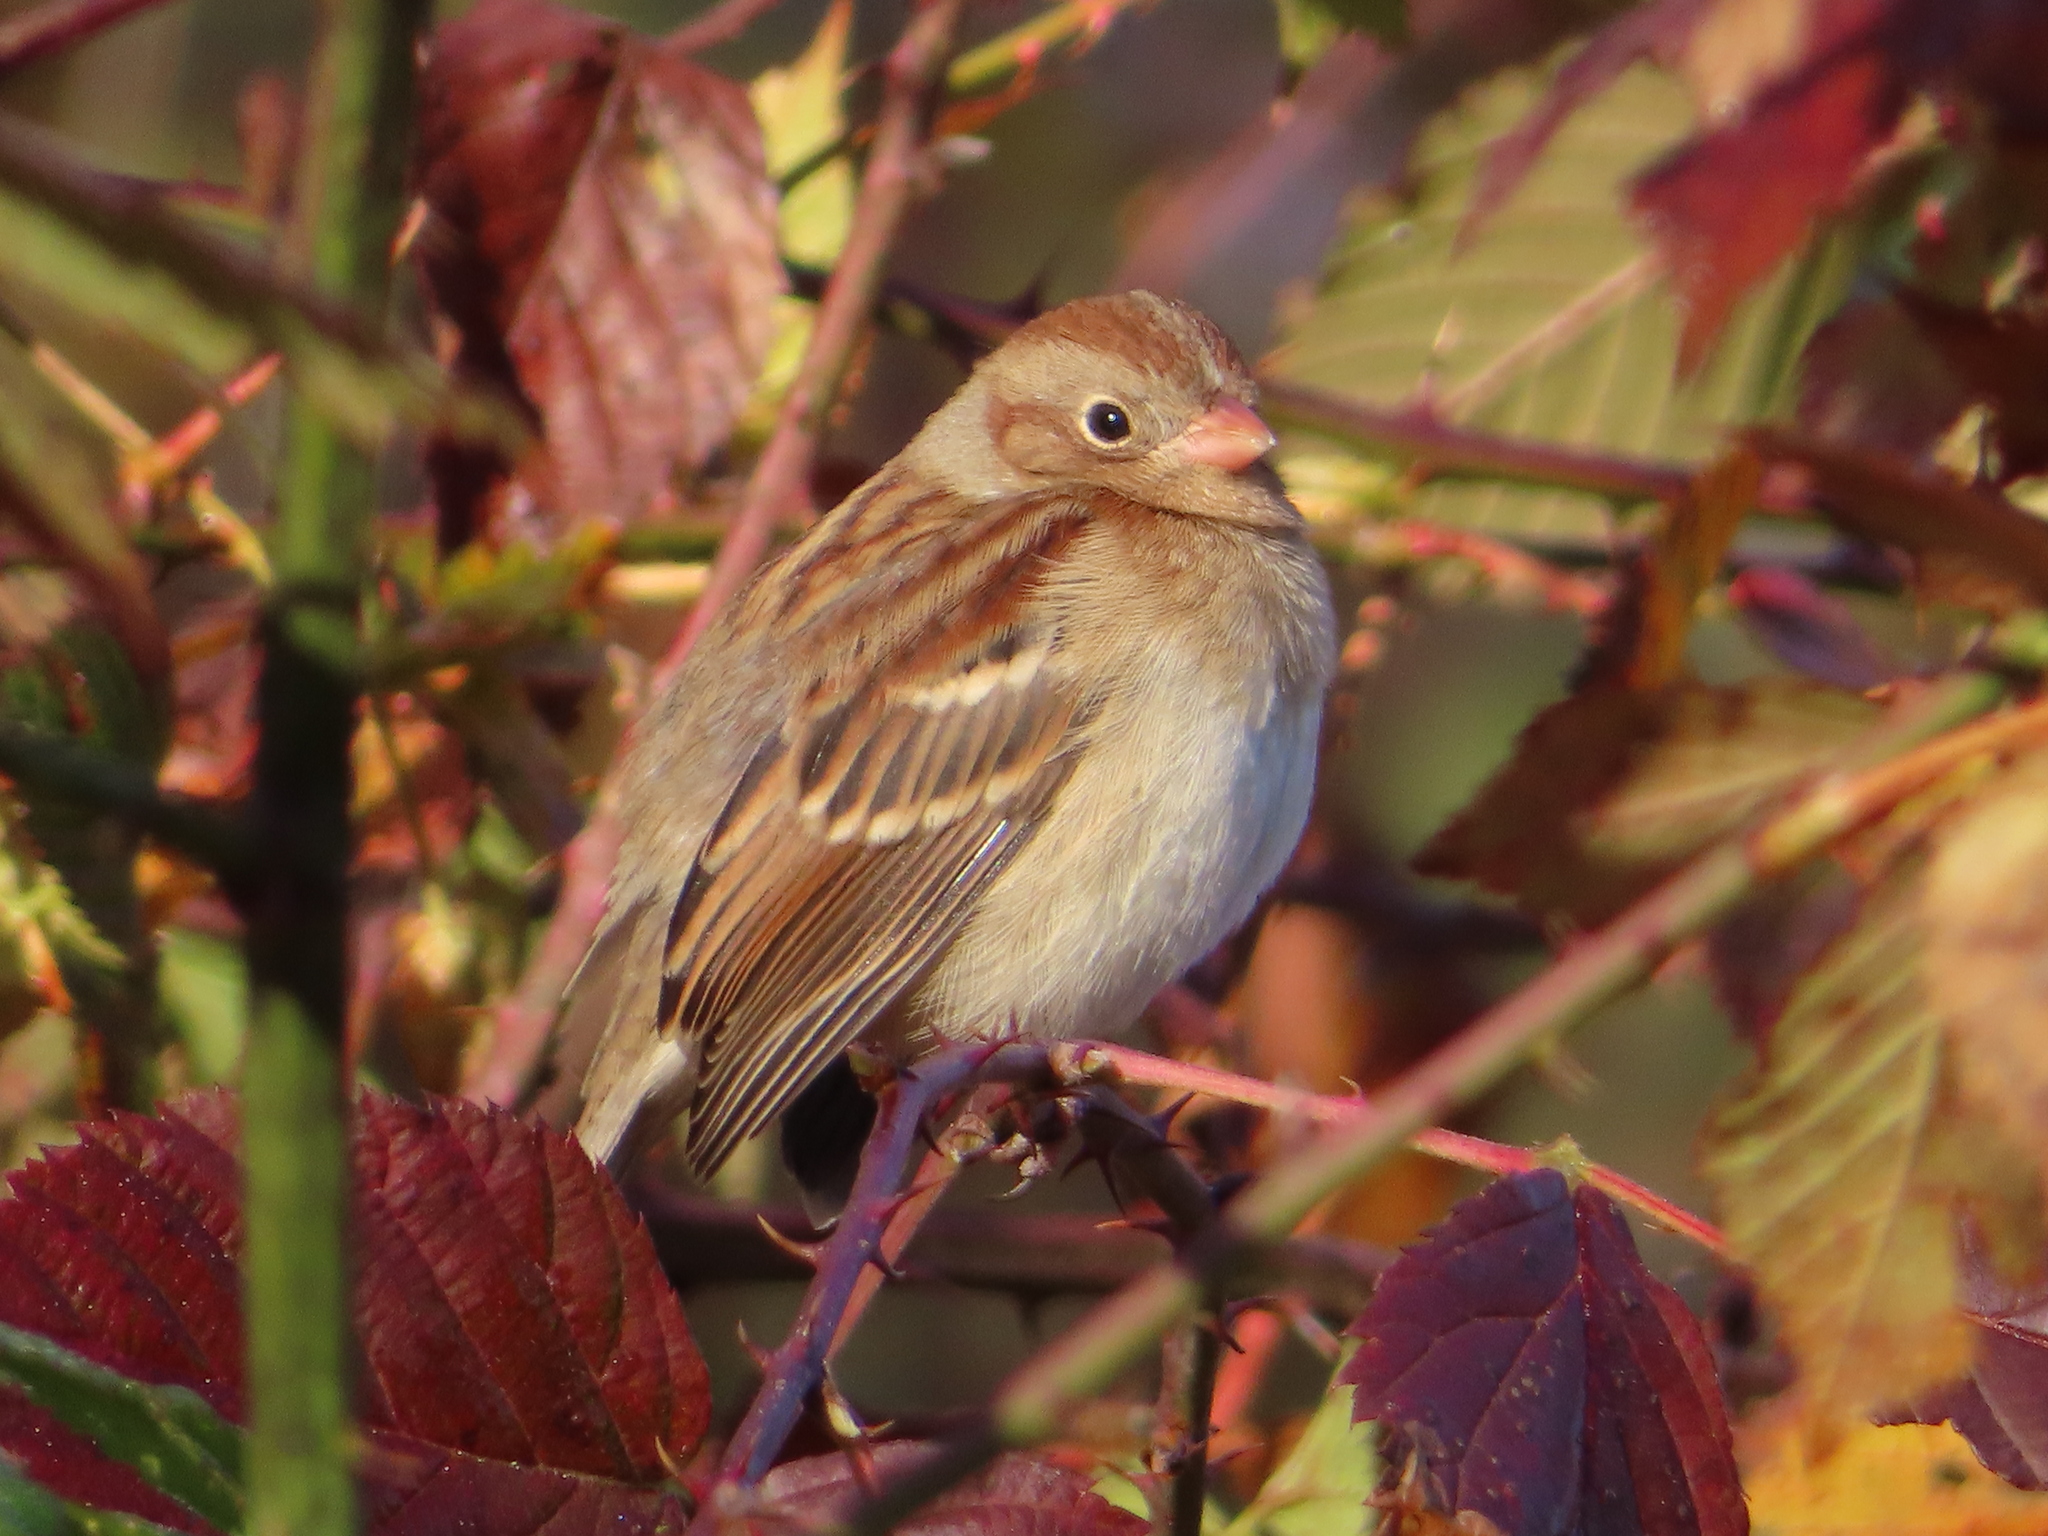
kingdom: Animalia
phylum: Chordata
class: Aves
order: Passeriformes
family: Passerellidae
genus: Spizella
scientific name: Spizella pusilla
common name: Field sparrow
